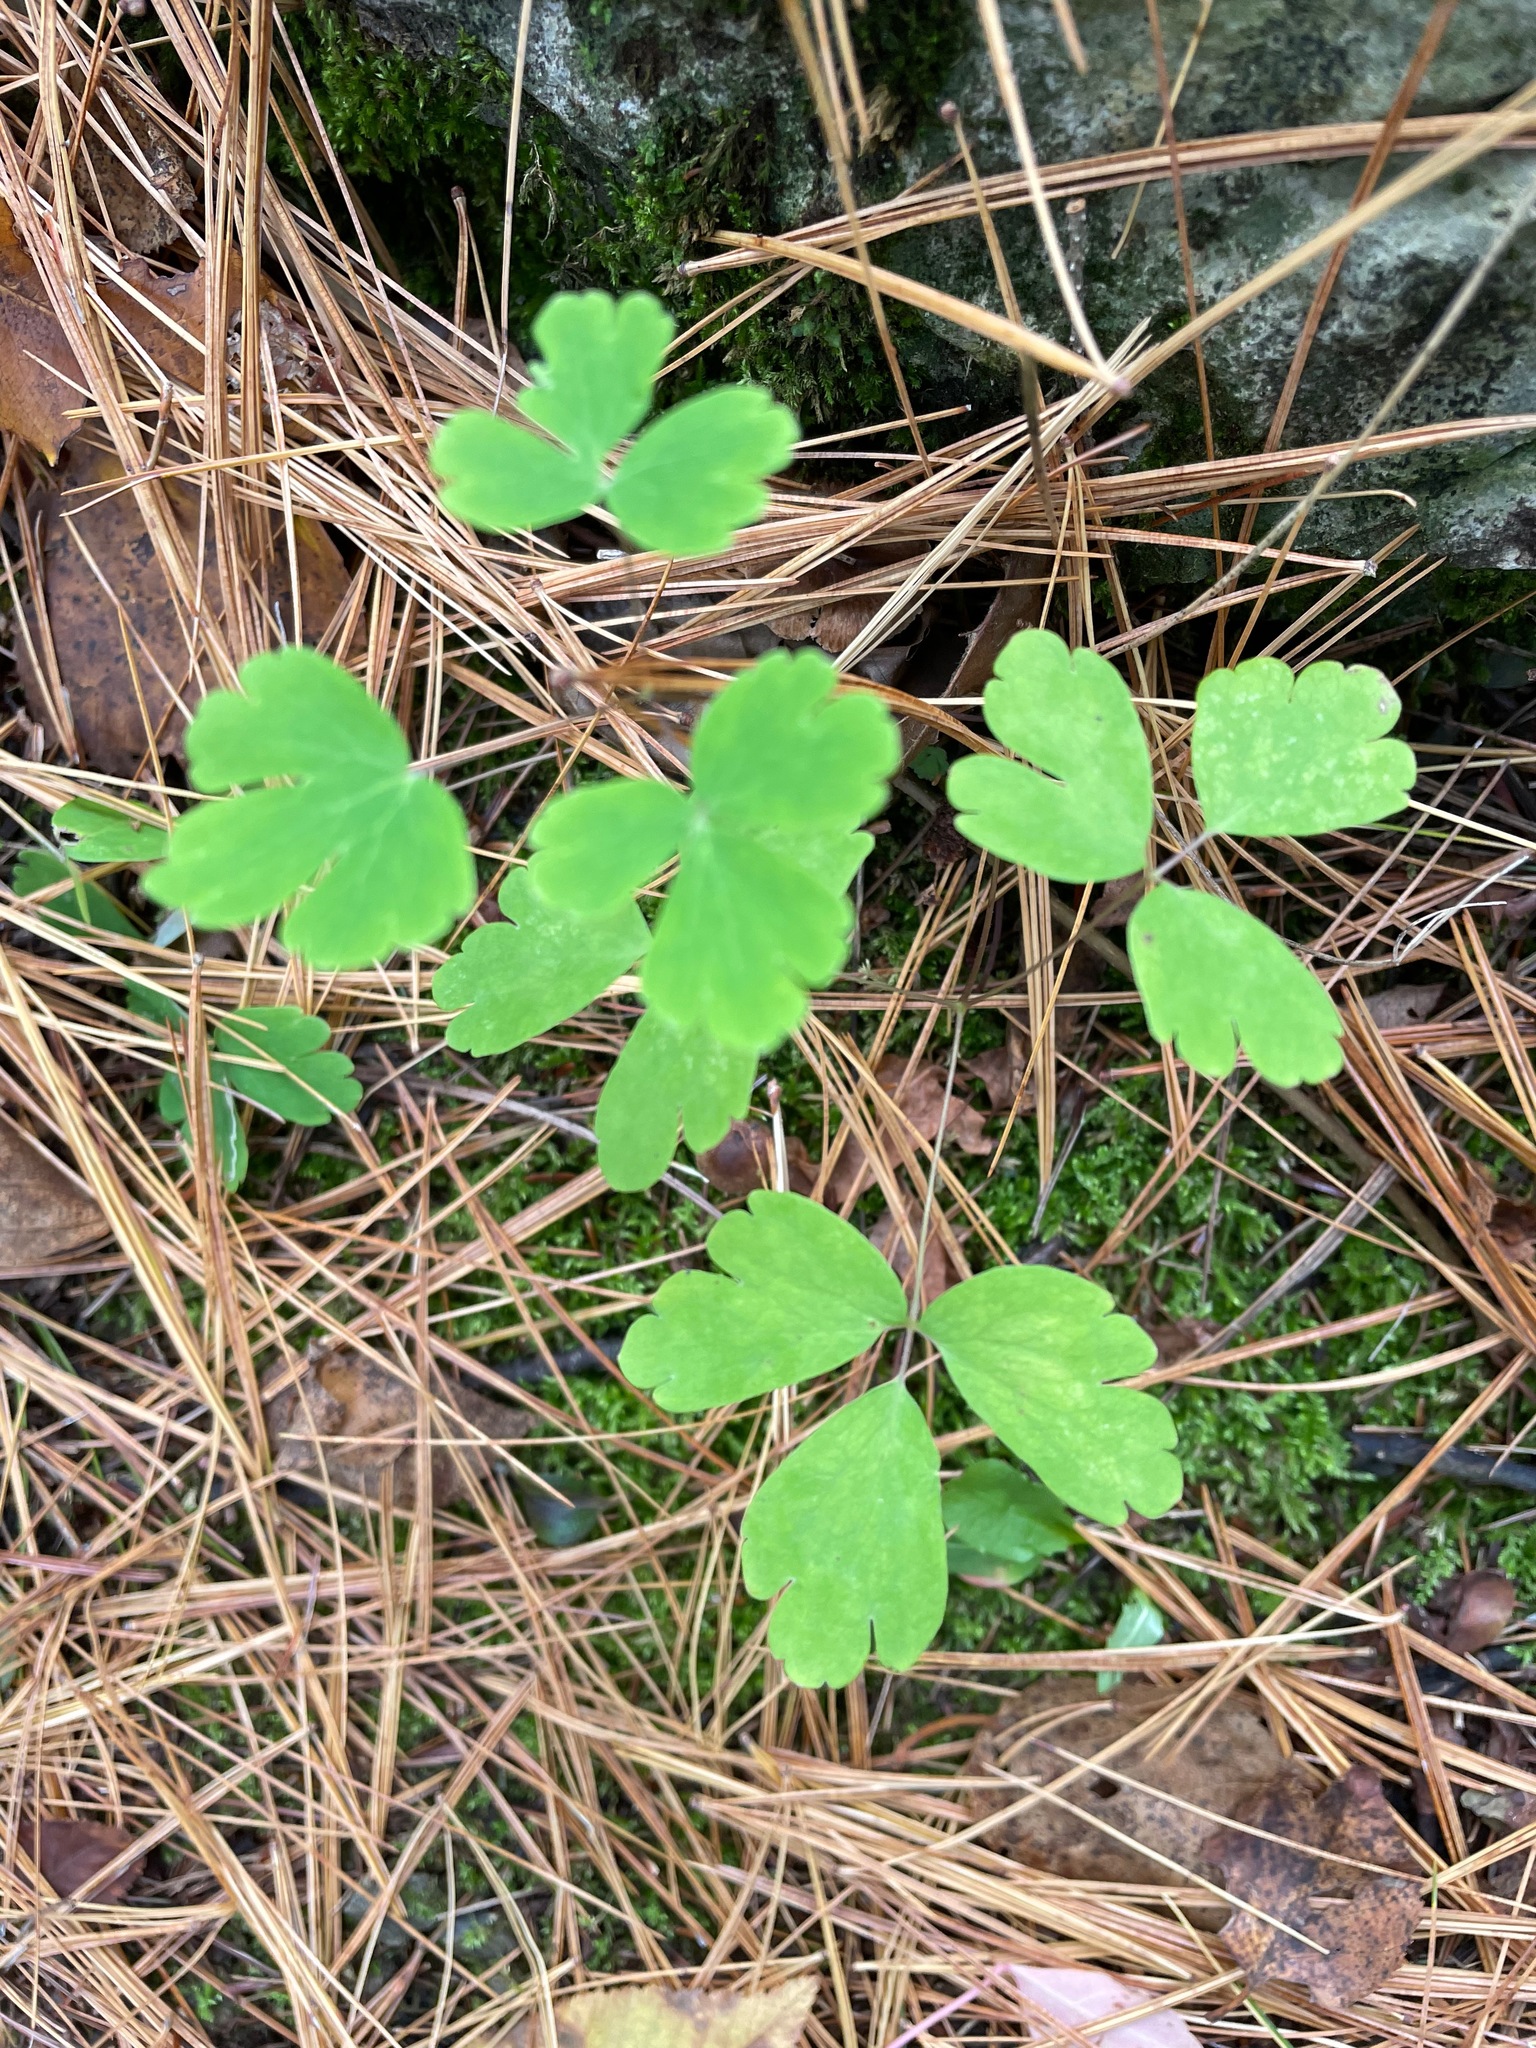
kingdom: Plantae
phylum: Tracheophyta
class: Magnoliopsida
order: Ranunculales
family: Ranunculaceae
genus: Aquilegia
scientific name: Aquilegia canadensis
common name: American columbine
